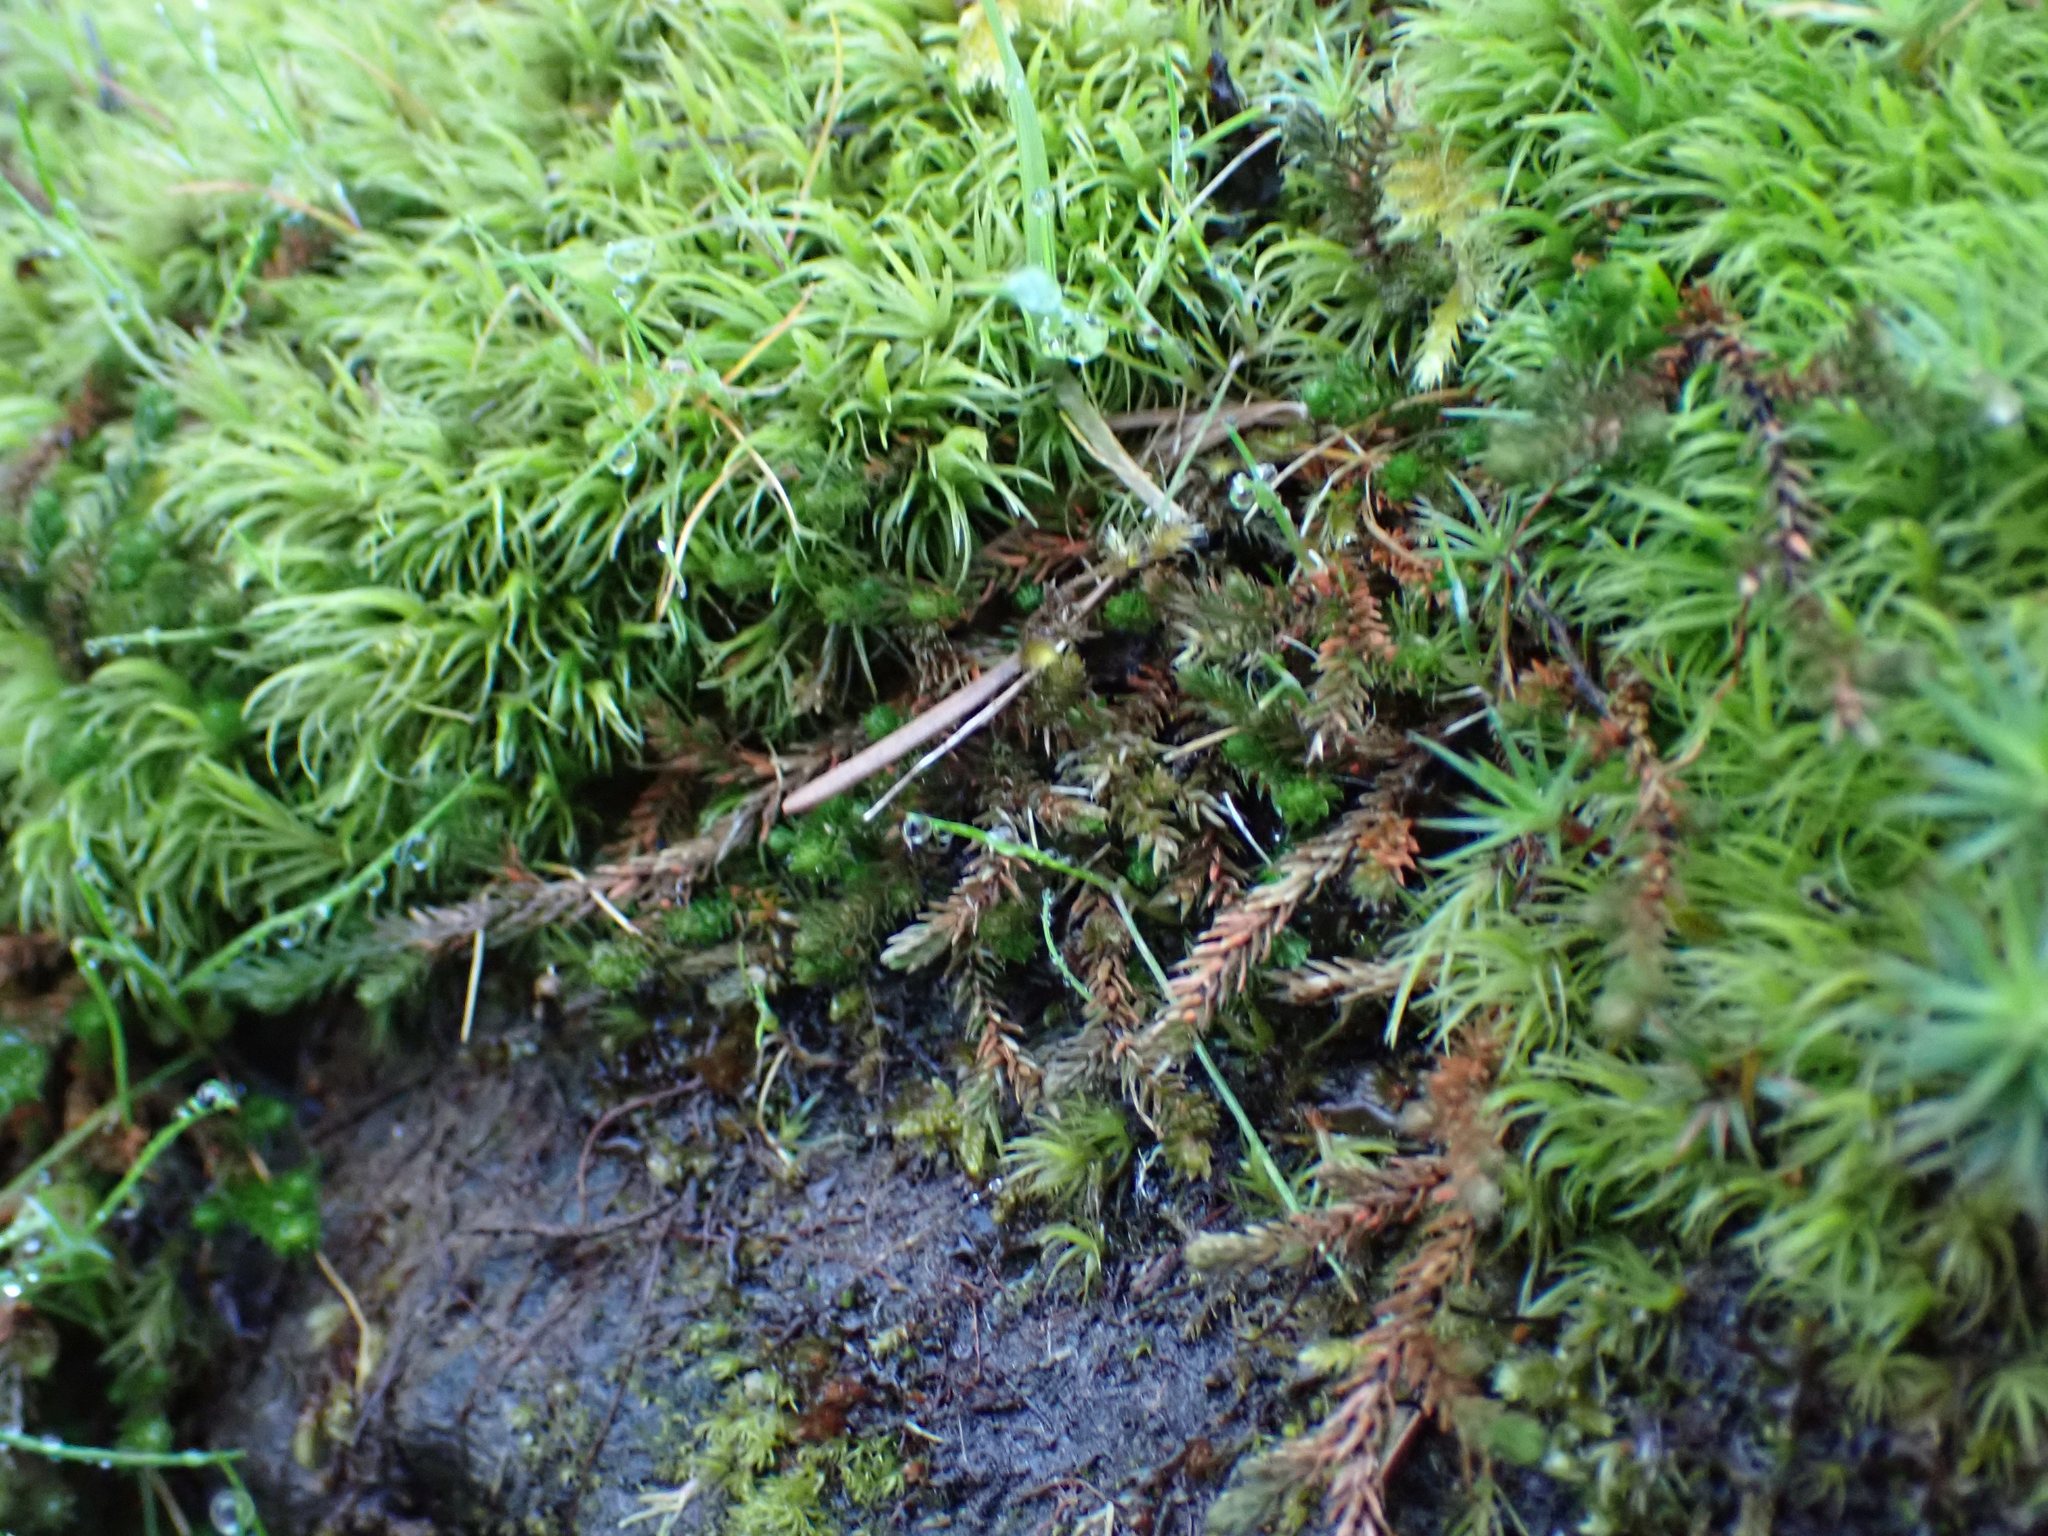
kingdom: Plantae
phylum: Tracheophyta
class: Lycopodiopsida
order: Selaginellales
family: Selaginellaceae
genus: Selaginella
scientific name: Selaginella wallacei
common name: Wallace's selaginella
